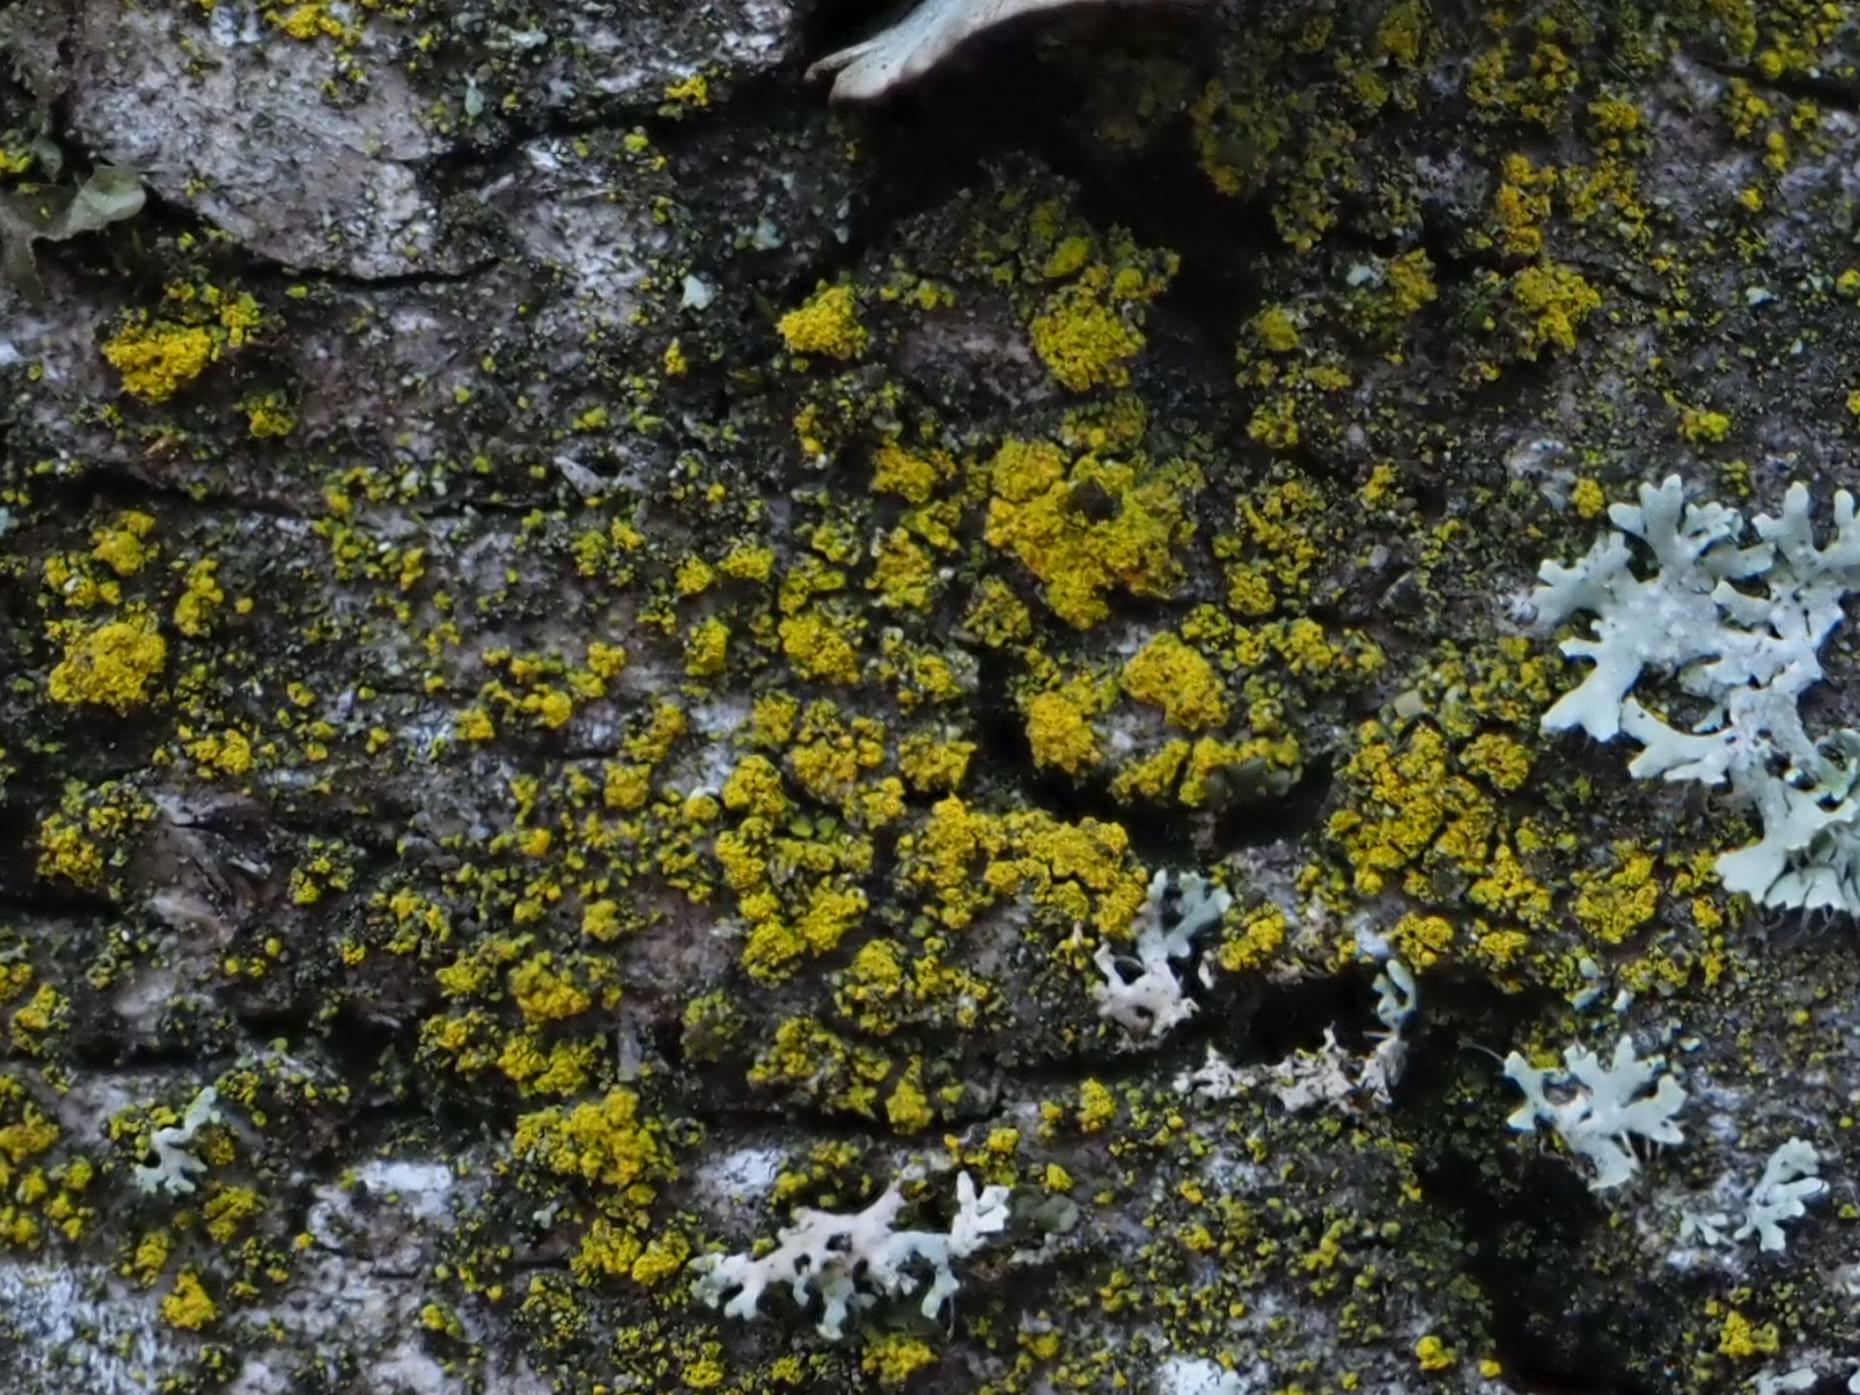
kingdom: Fungi
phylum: Ascomycota
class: Candelariomycetes
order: Candelariales
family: Candelariaceae
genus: Candelariella
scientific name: Candelariella reflexa
